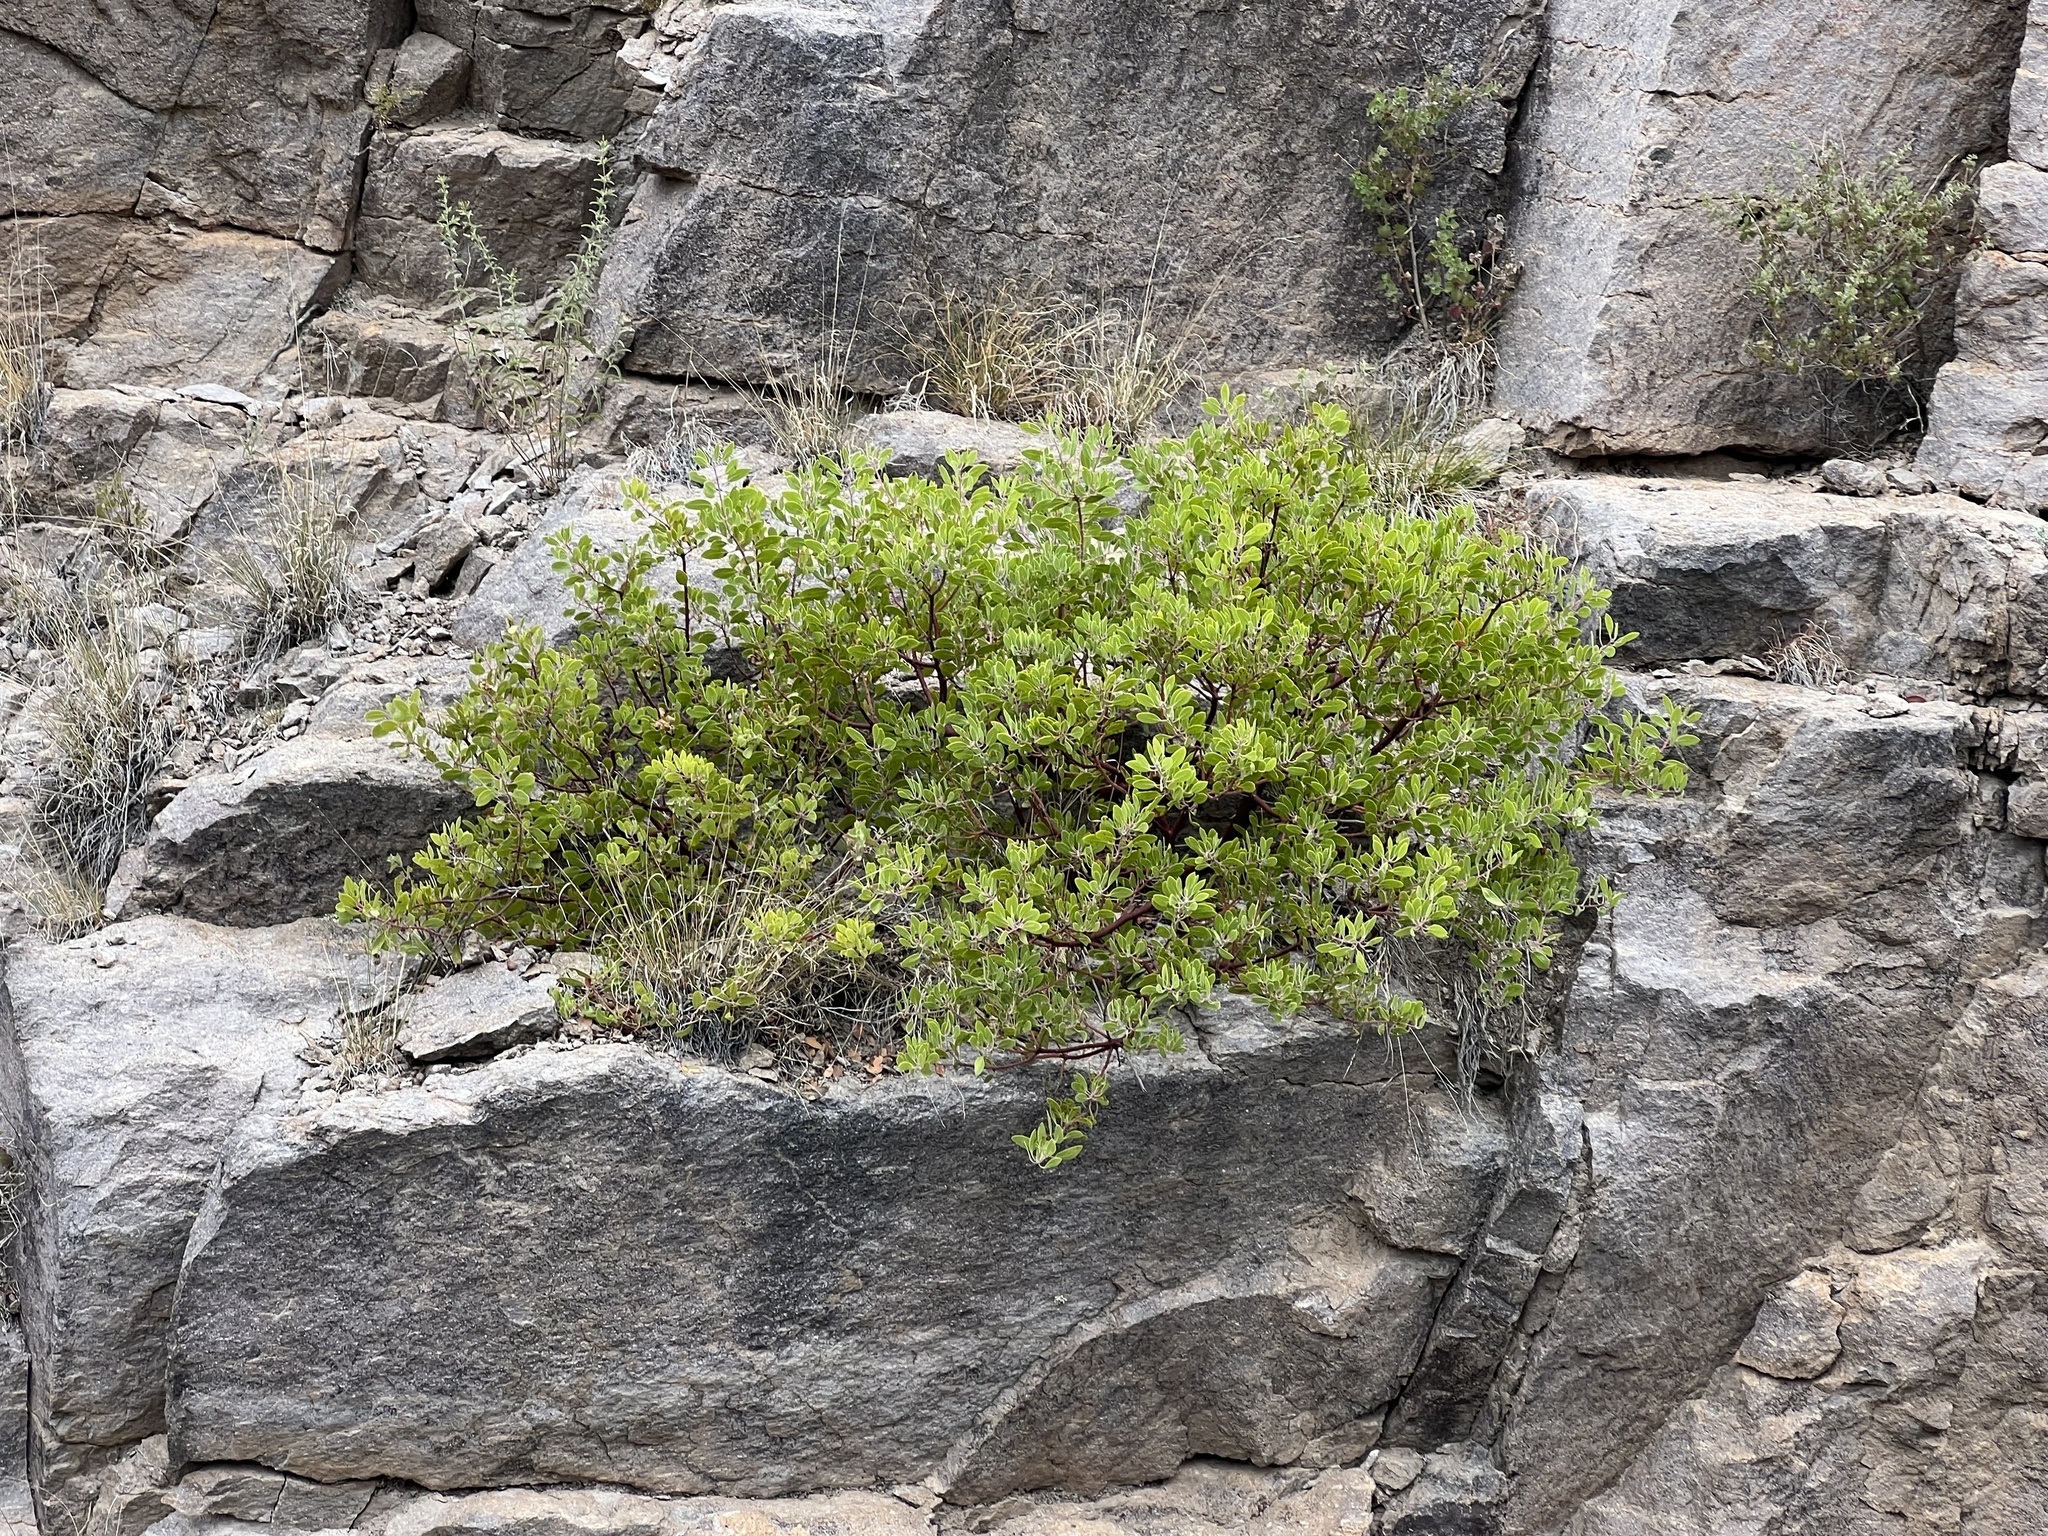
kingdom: Plantae
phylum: Tracheophyta
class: Magnoliopsida
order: Ericales
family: Ericaceae
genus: Arctostaphylos
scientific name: Arctostaphylos pungens
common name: Mexican manzanita
